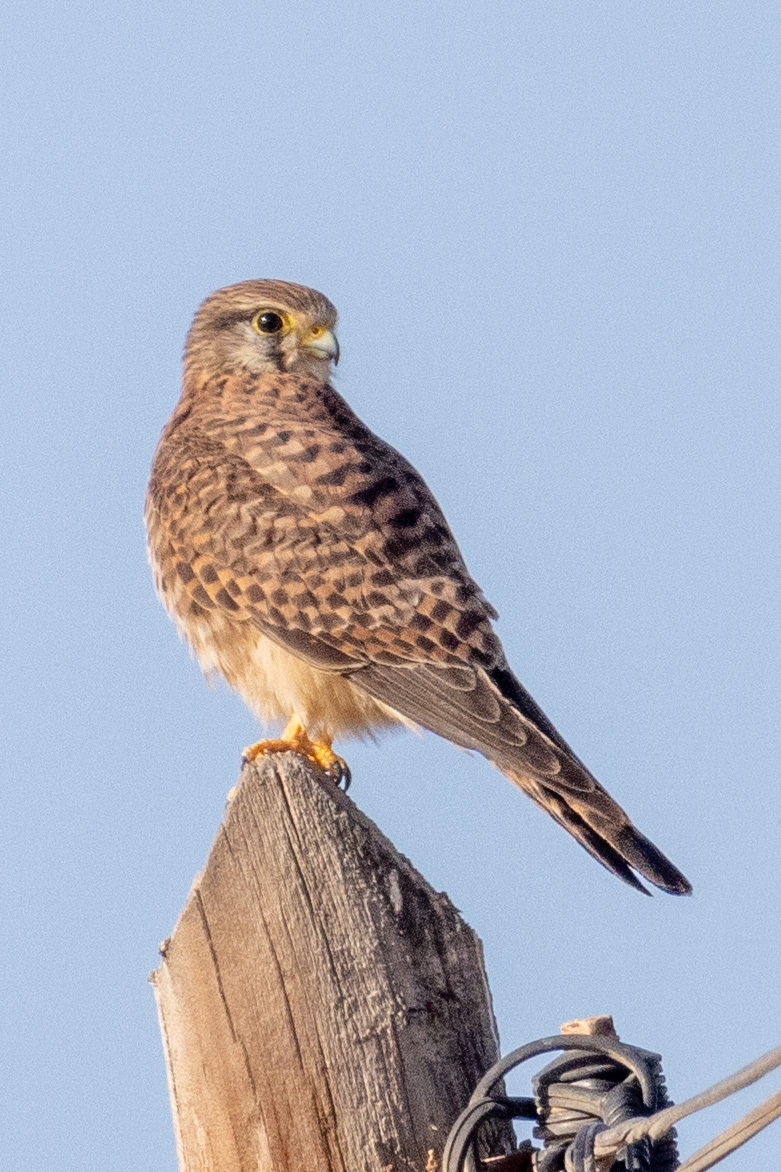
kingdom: Animalia
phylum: Chordata
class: Aves
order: Falconiformes
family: Falconidae
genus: Falco
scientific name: Falco tinnunculus
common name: Common kestrel
